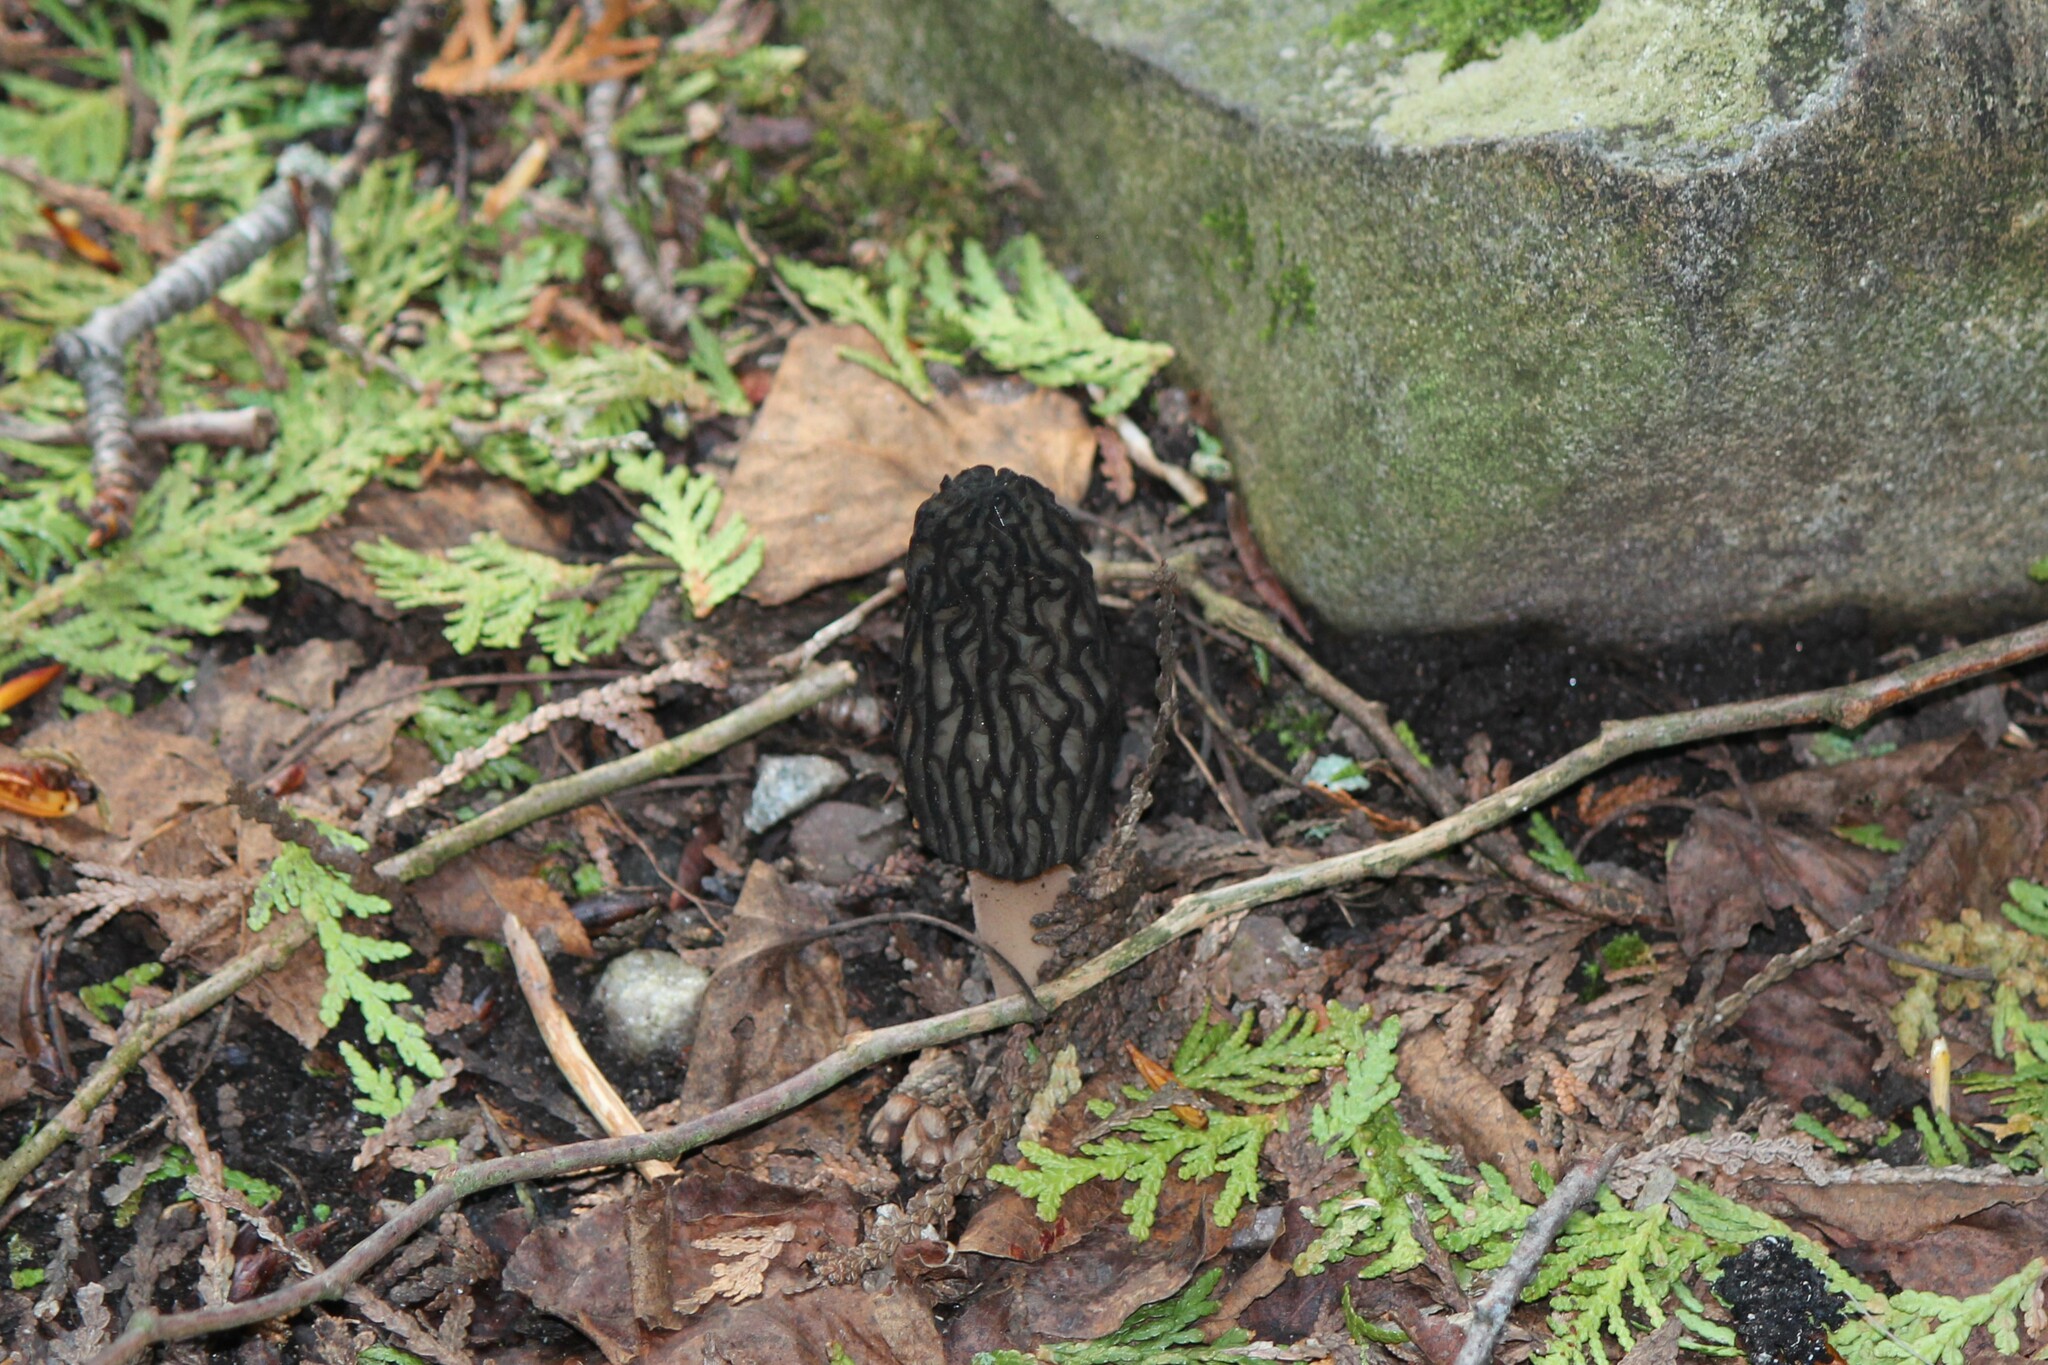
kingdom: Fungi
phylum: Ascomycota
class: Pezizomycetes
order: Pezizales
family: Morchellaceae
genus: Morchella
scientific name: Morchella angusticeps
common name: Black morel
